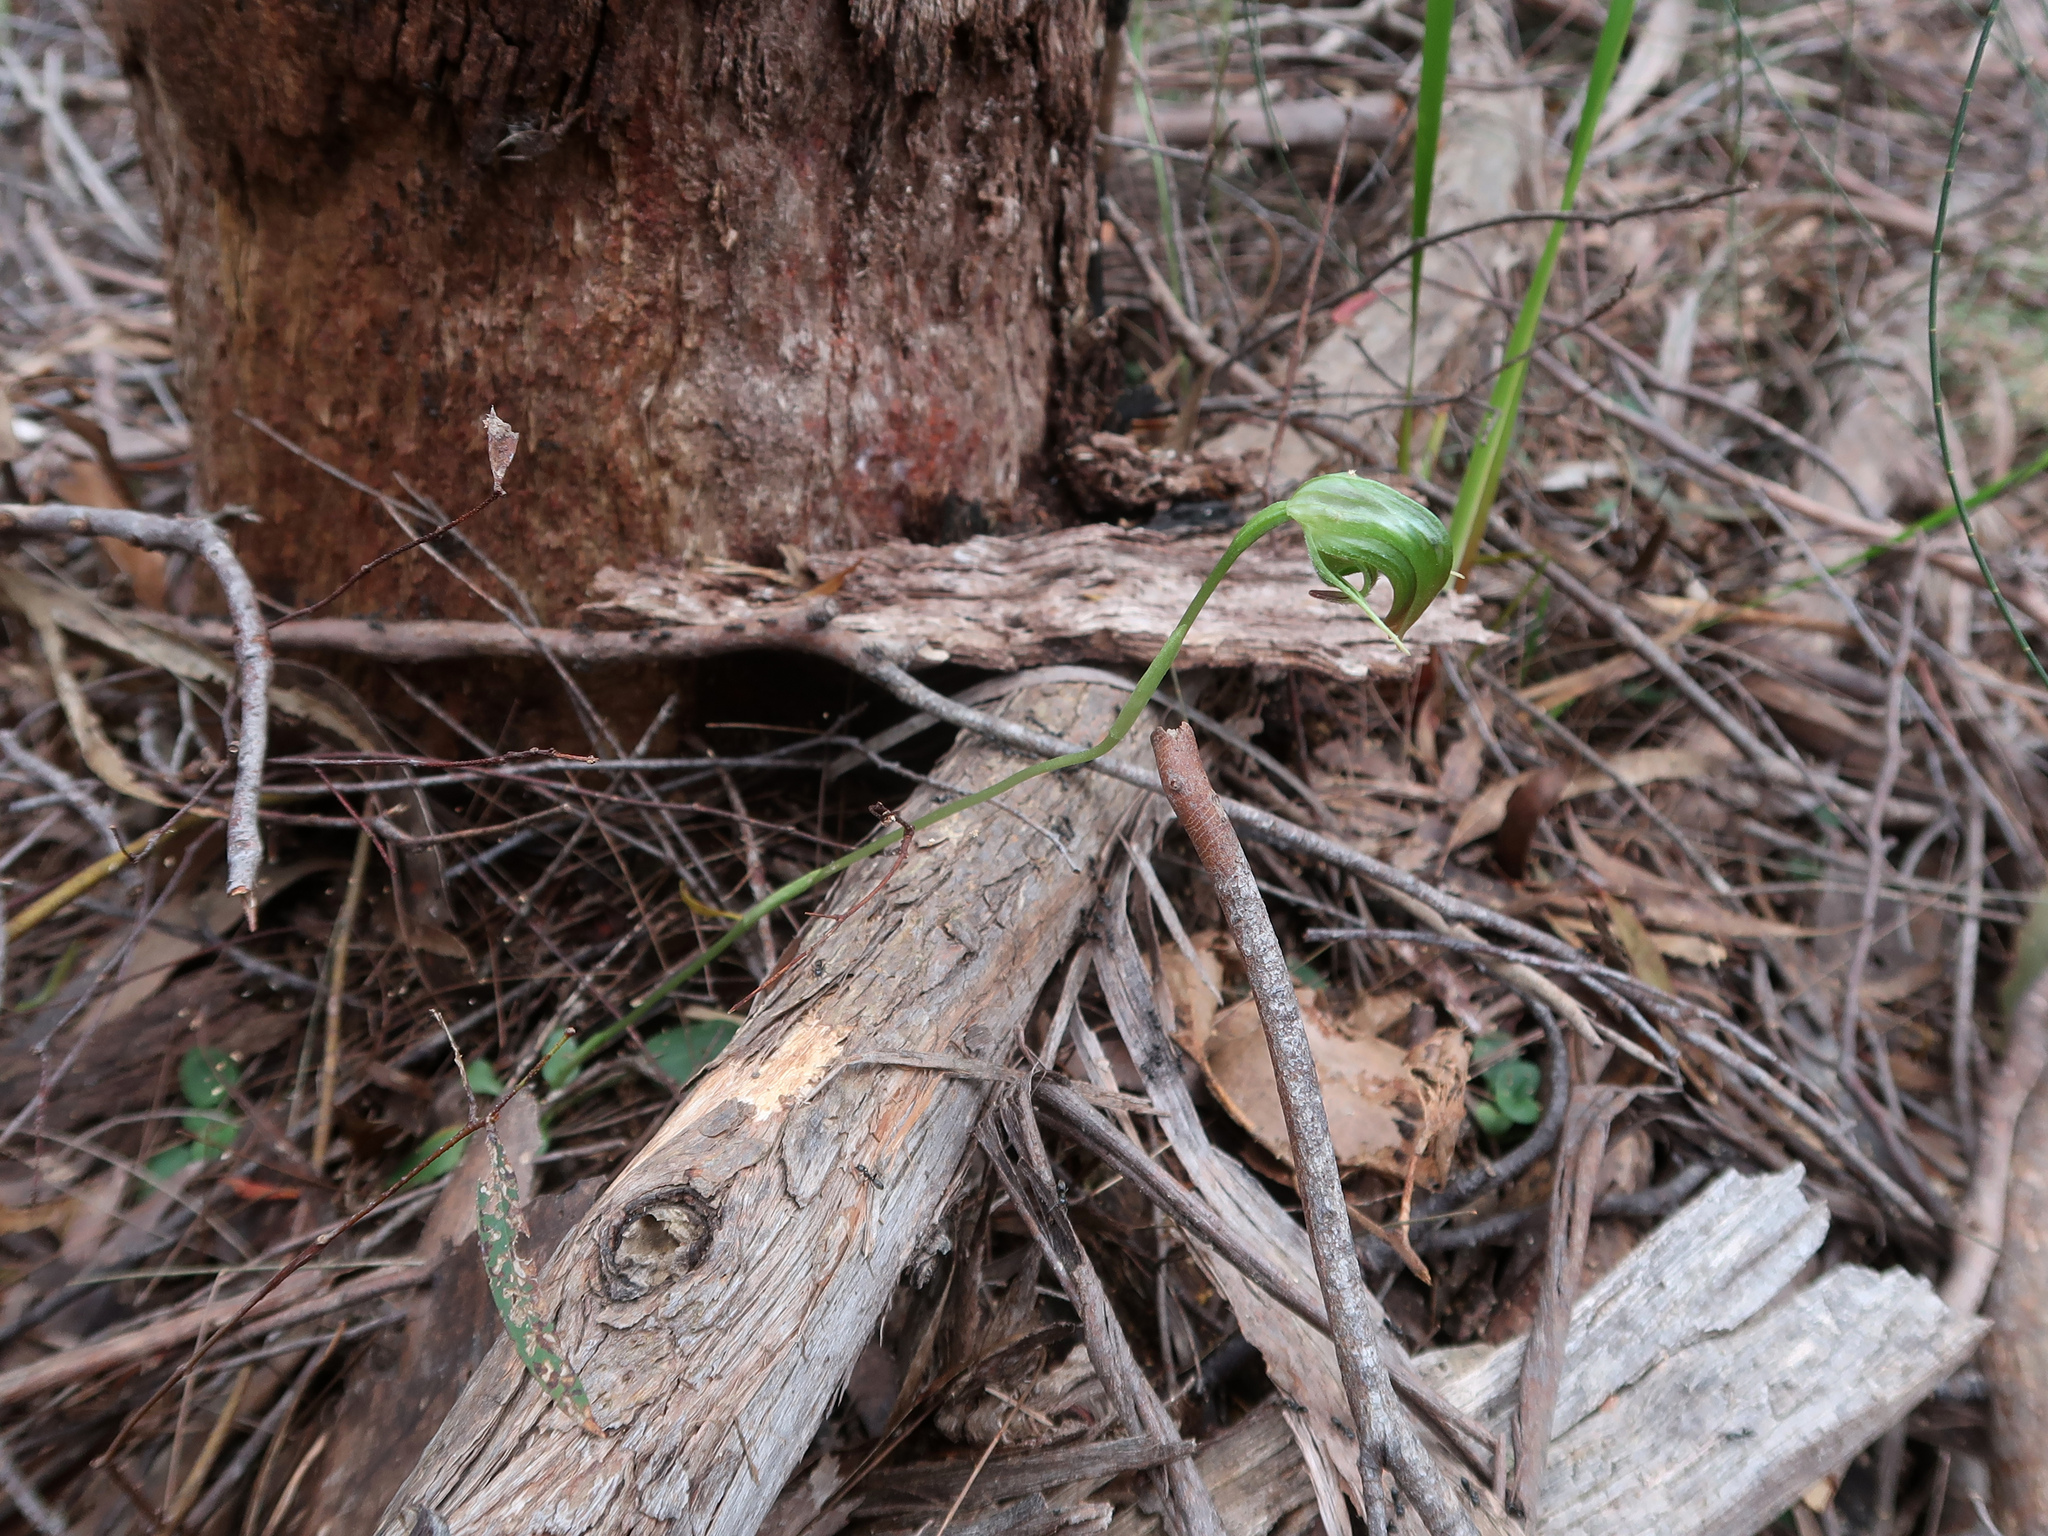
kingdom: Plantae
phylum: Tracheophyta
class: Liliopsida
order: Asparagales
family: Orchidaceae
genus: Pterostylis
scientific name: Pterostylis nutans
